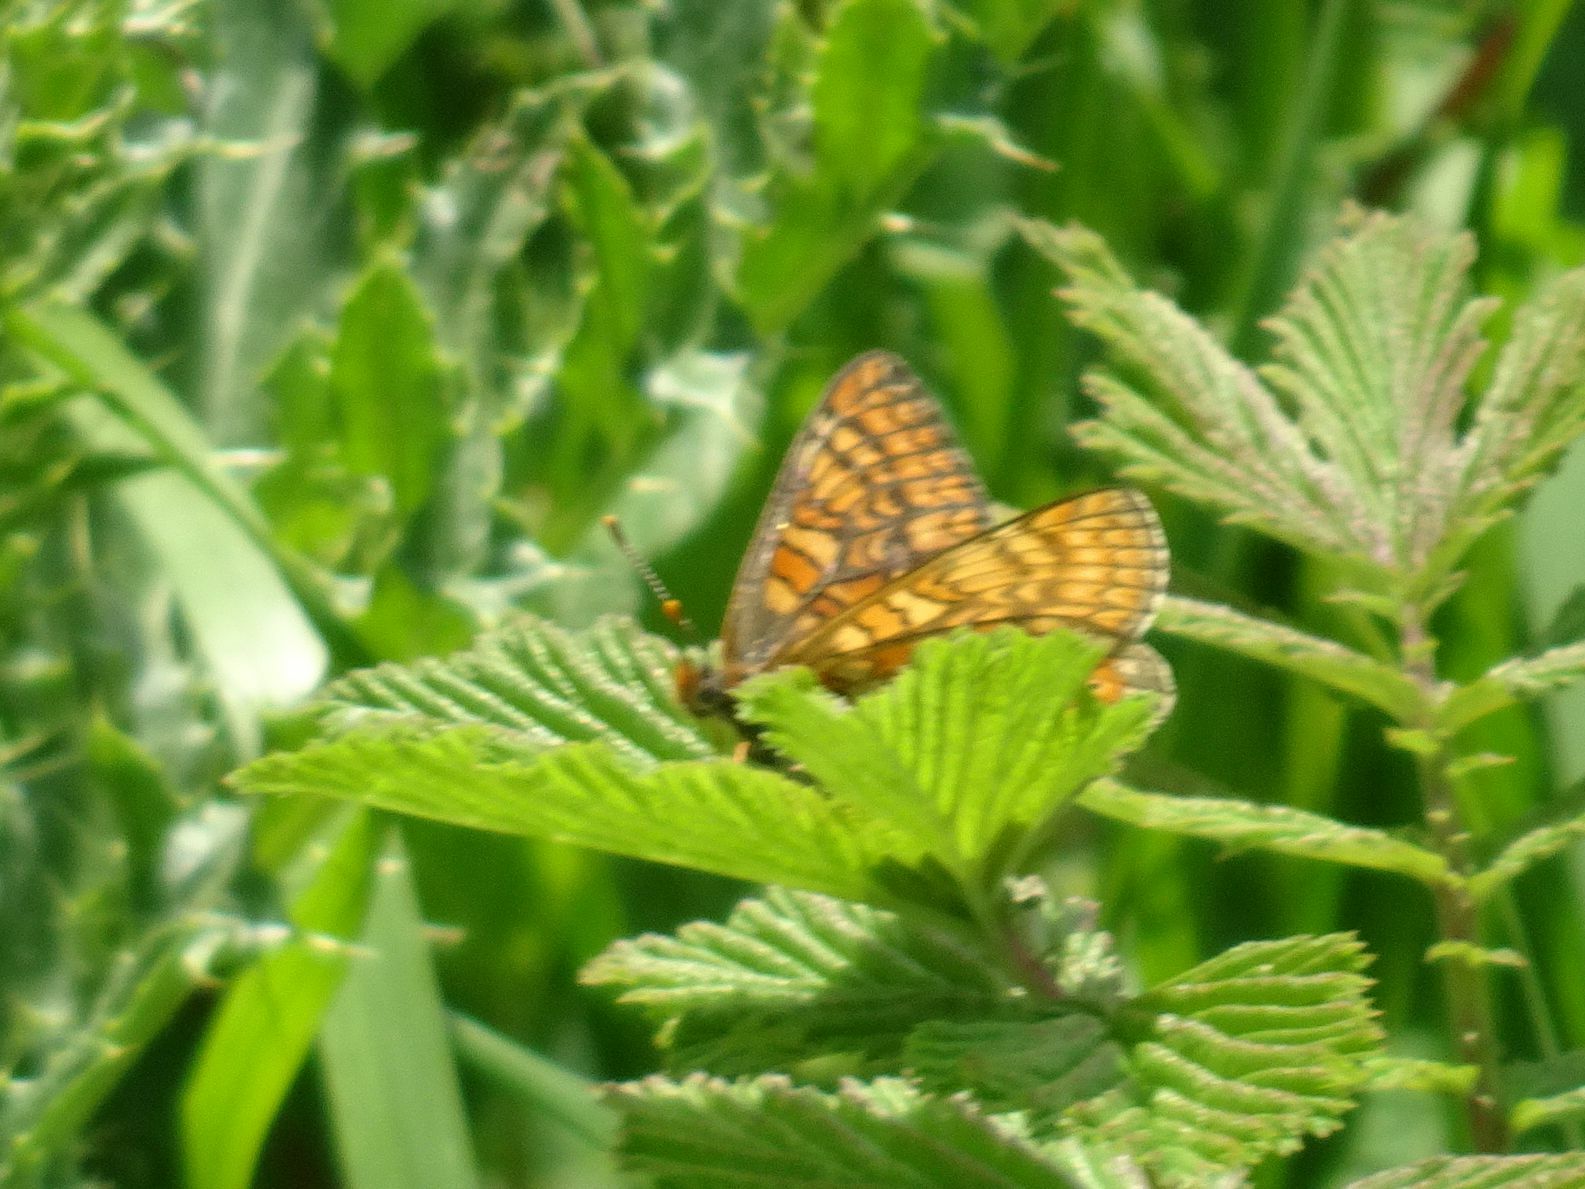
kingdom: Animalia
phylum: Arthropoda
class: Insecta
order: Lepidoptera
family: Nymphalidae
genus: Euphydryas
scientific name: Euphydryas aurinia
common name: Marsh fritillary
